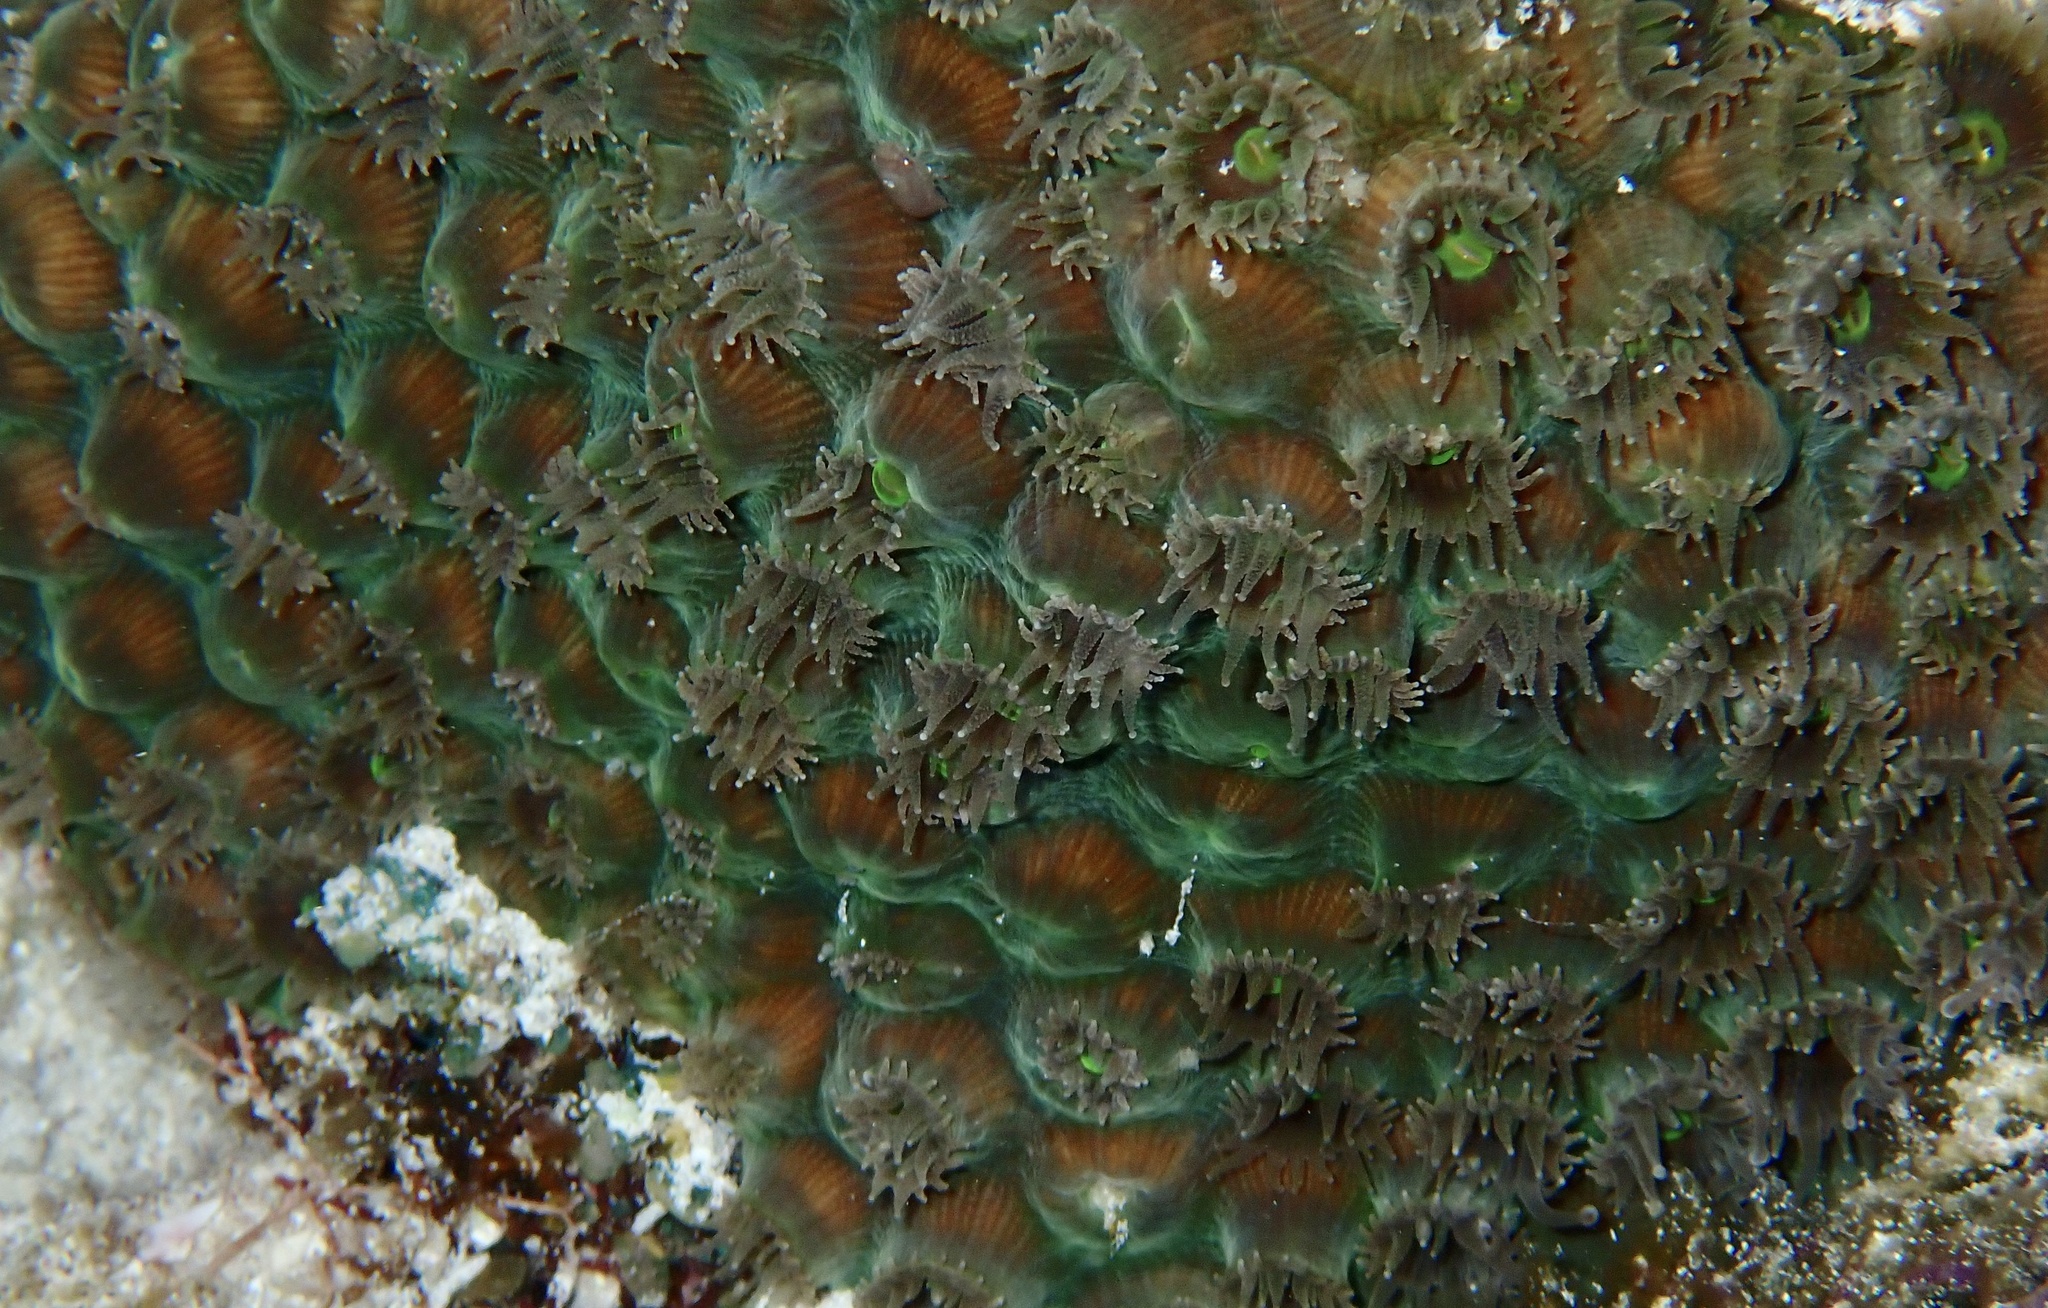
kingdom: Animalia
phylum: Cnidaria
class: Anthozoa
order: Scleractinia
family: Montastraeidae
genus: Montastraea
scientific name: Montastraea cavernosa
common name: Great star coral
